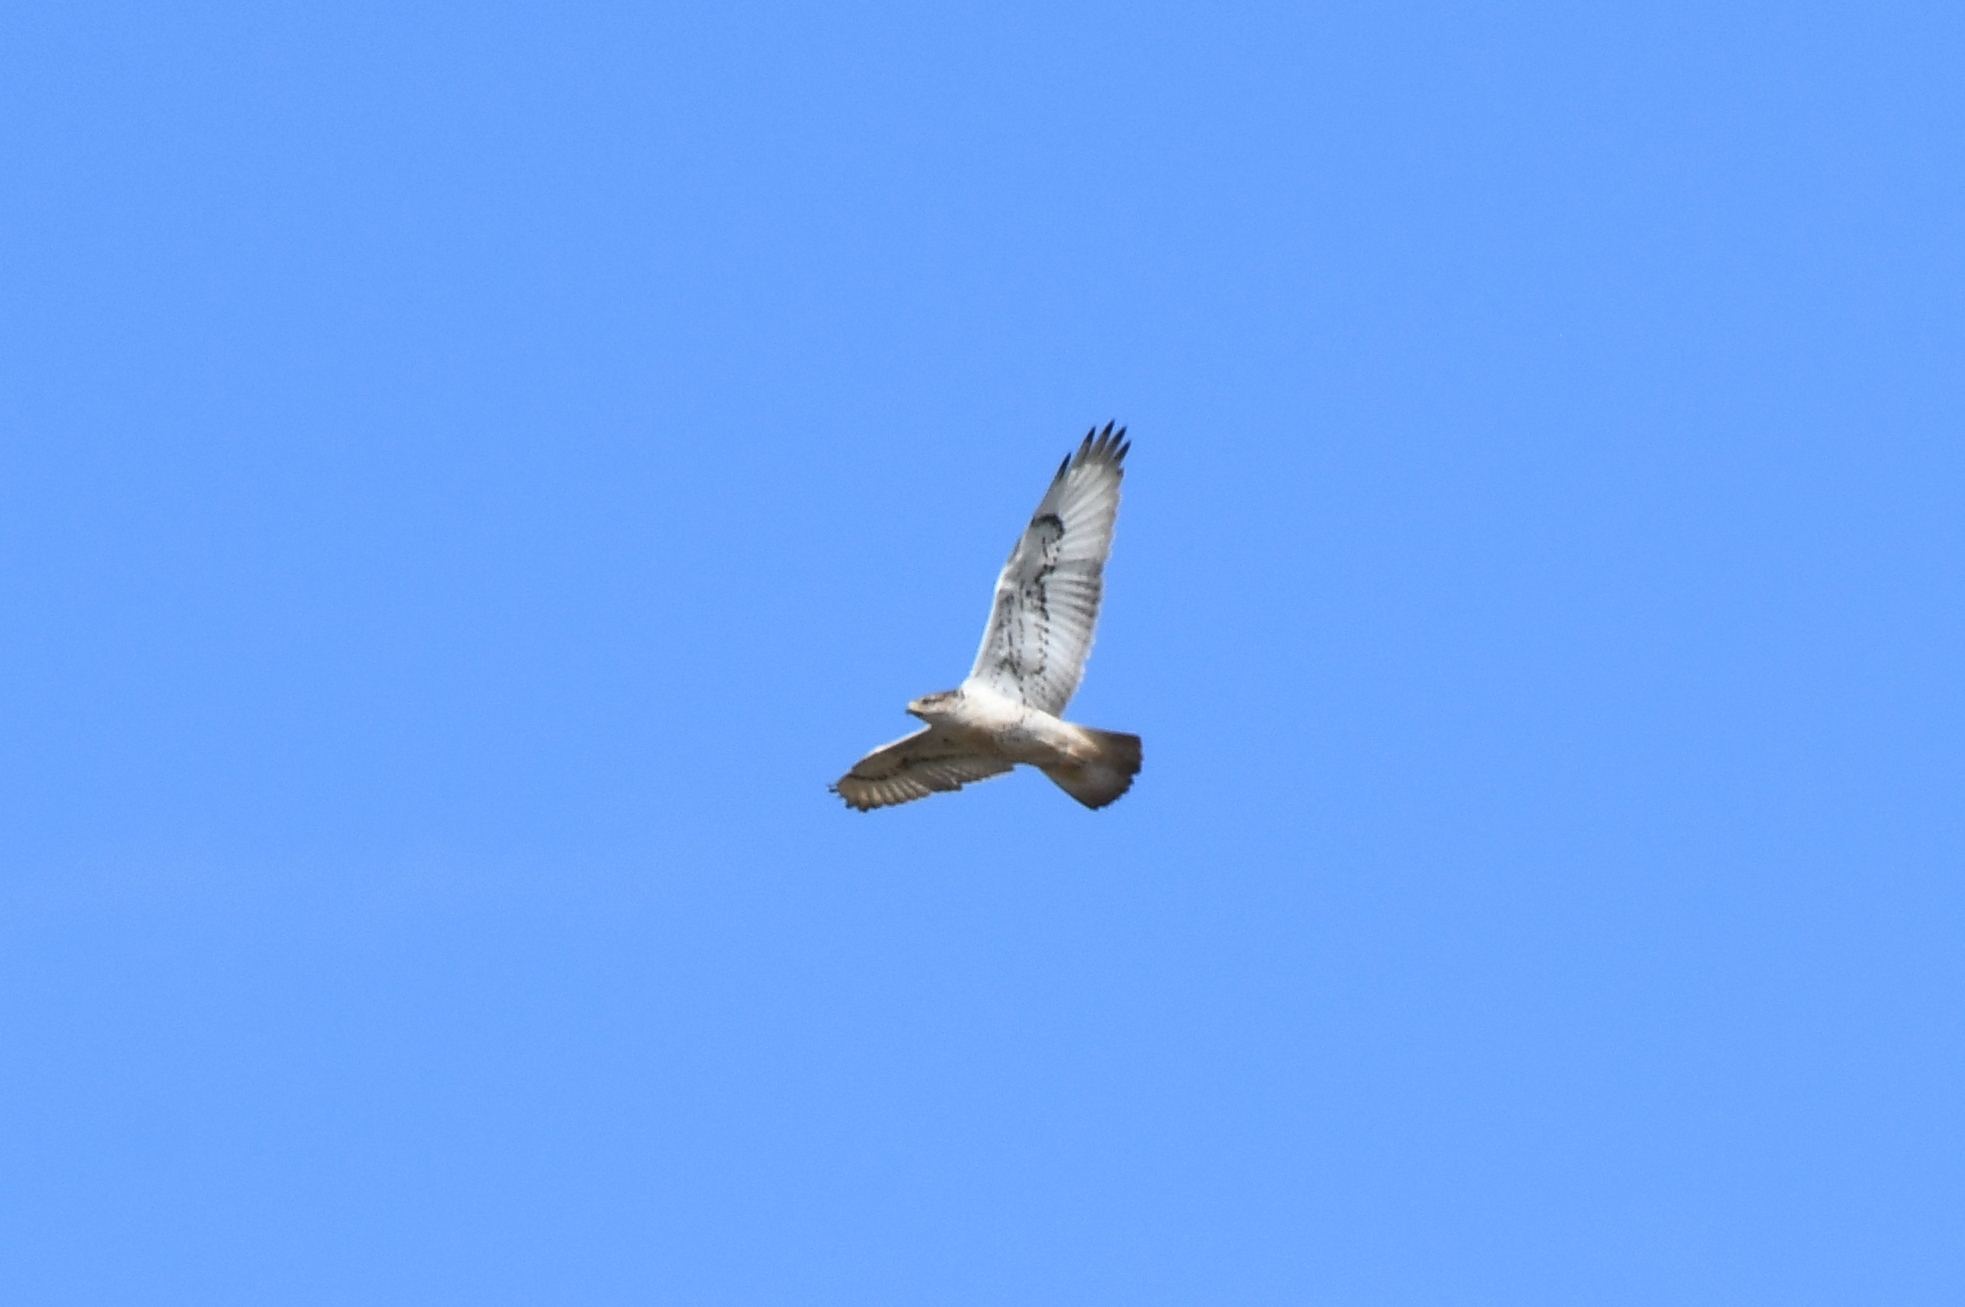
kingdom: Animalia
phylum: Chordata
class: Aves
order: Accipitriformes
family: Accipitridae
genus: Buteo
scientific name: Buteo regalis
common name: Ferruginous hawk
